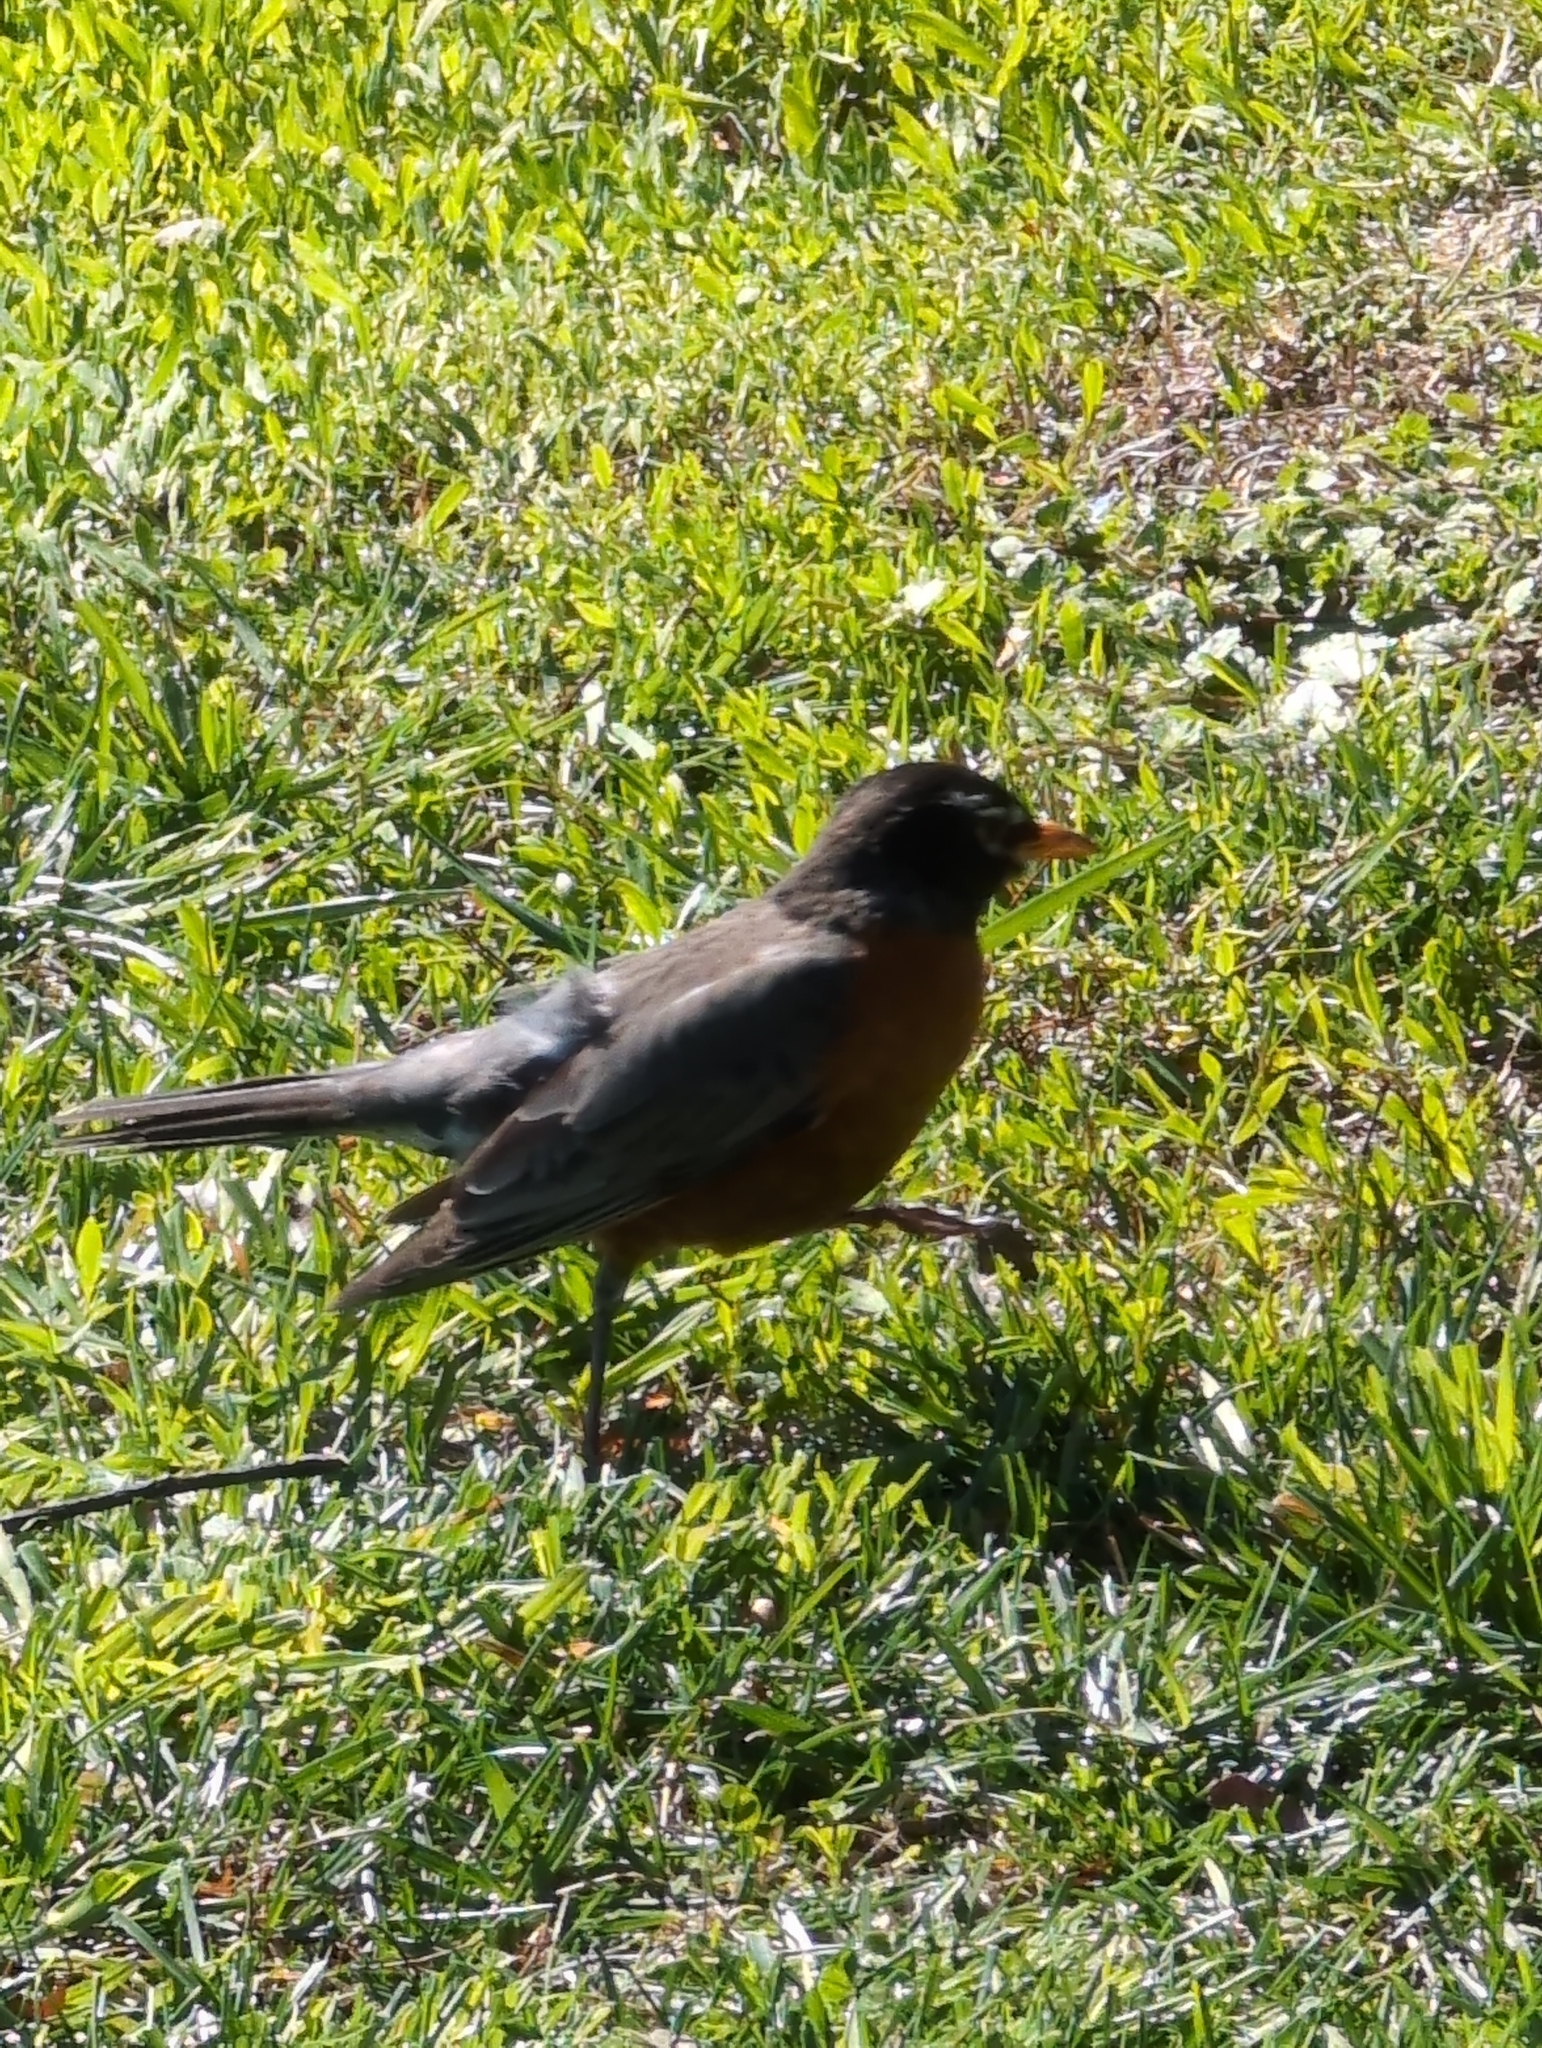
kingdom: Animalia
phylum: Chordata
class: Aves
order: Passeriformes
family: Turdidae
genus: Turdus
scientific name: Turdus migratorius
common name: American robin
